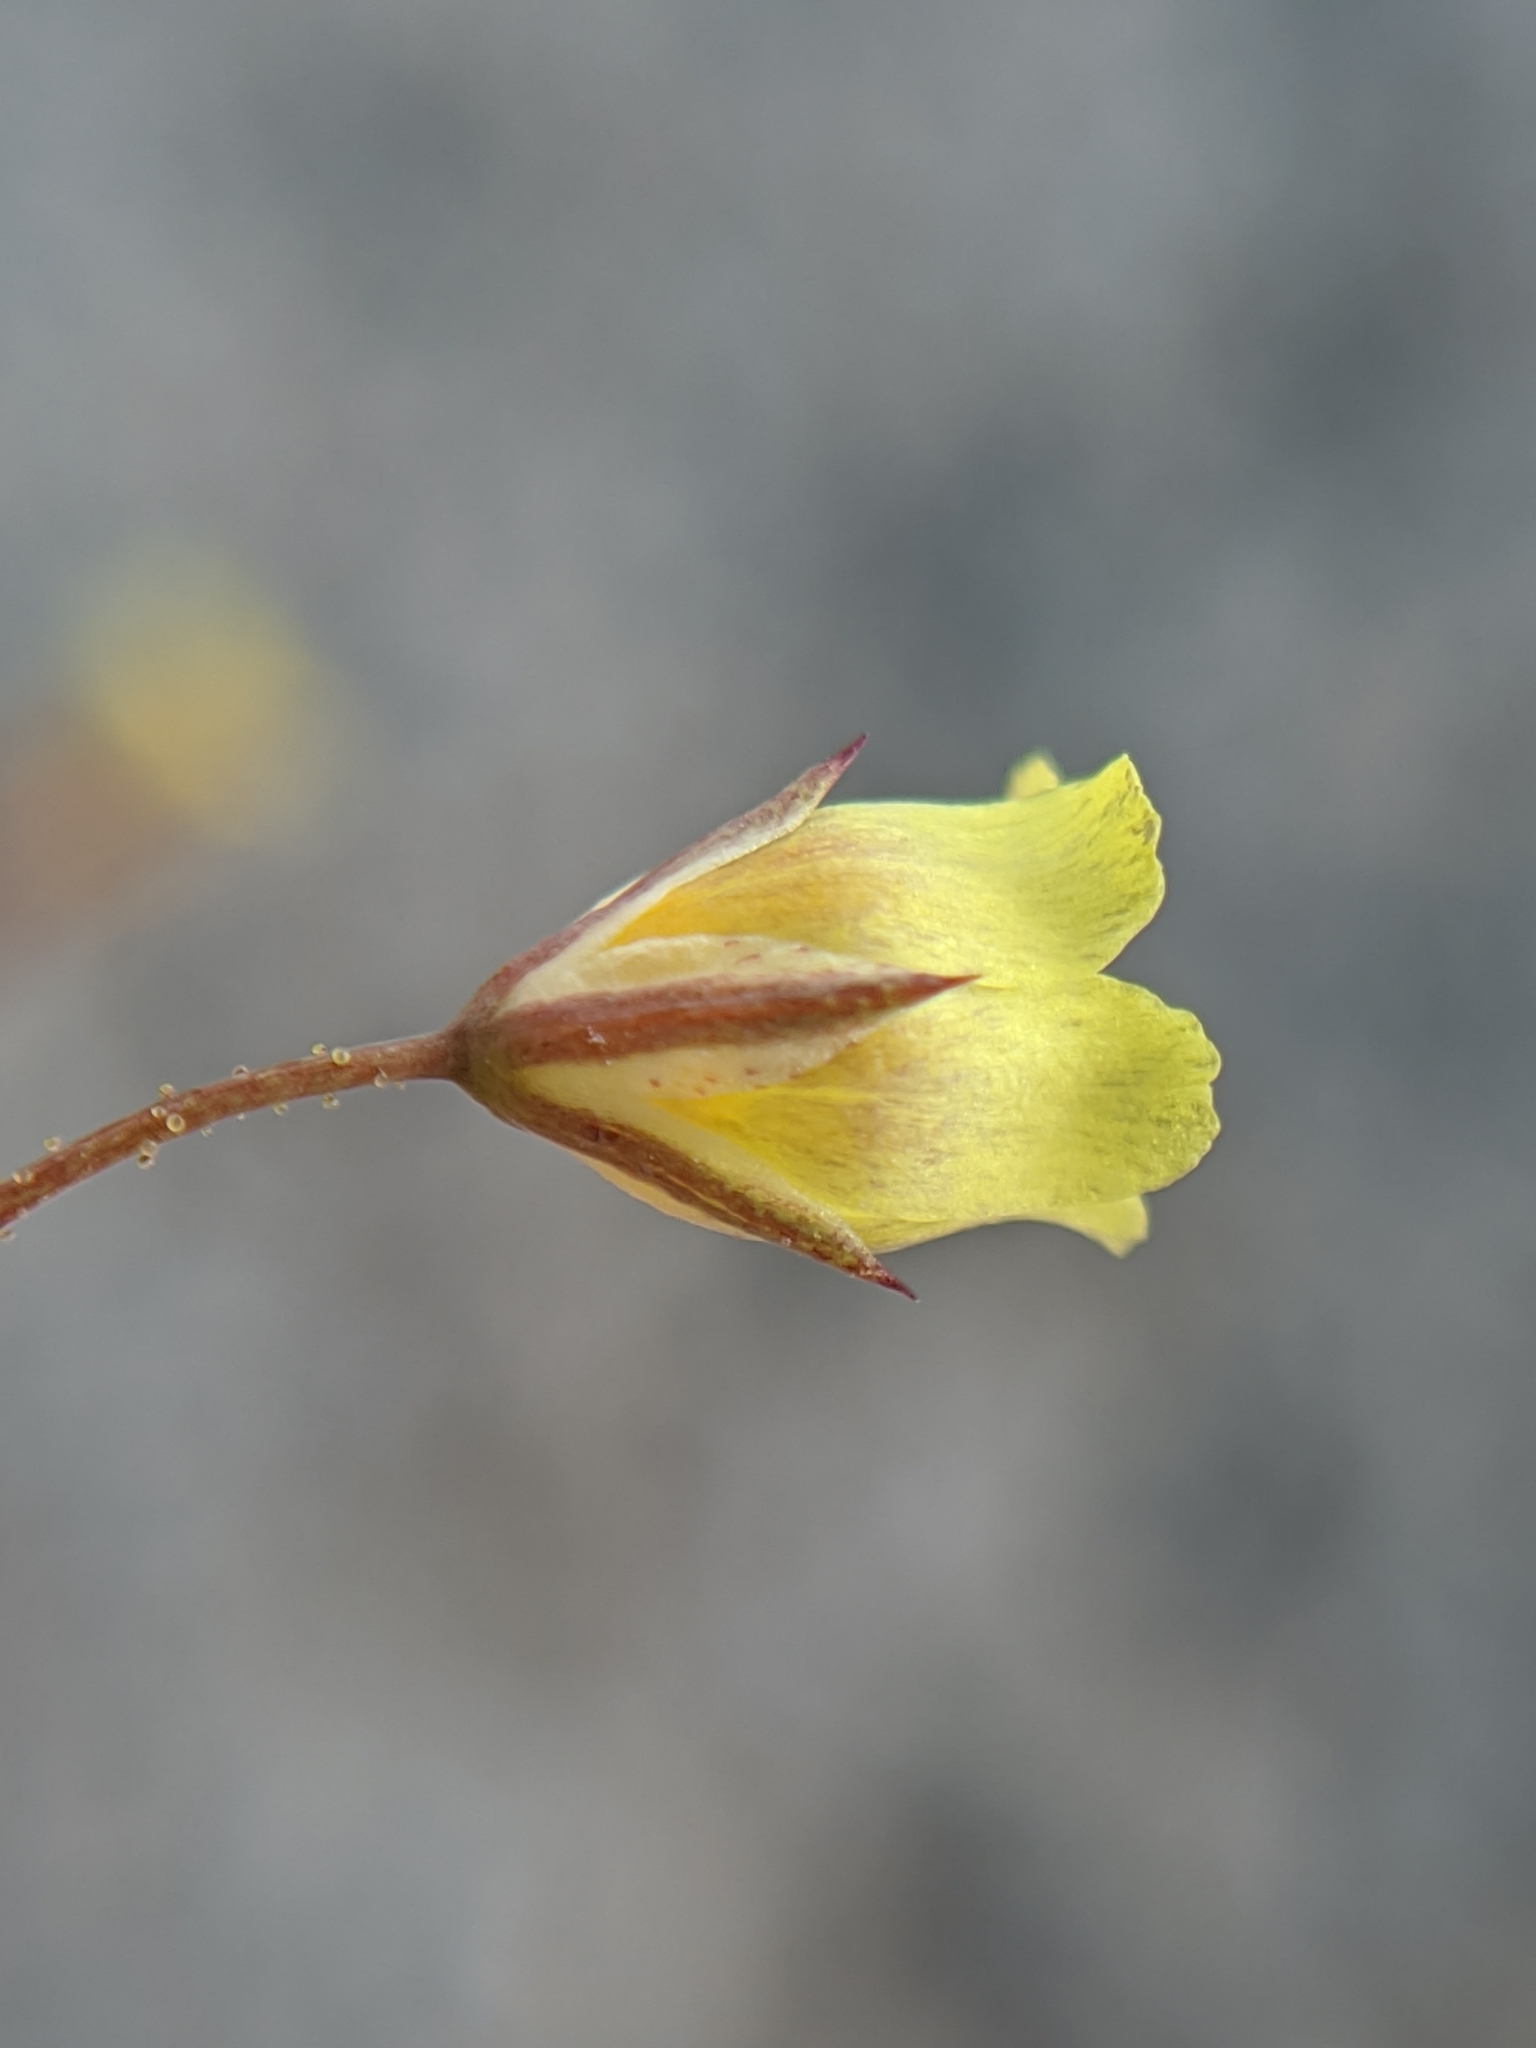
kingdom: Plantae
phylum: Tracheophyta
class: Magnoliopsida
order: Ericales
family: Polemoniaceae
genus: Linanthus
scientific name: Linanthus filiformis
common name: Yellow gilia
